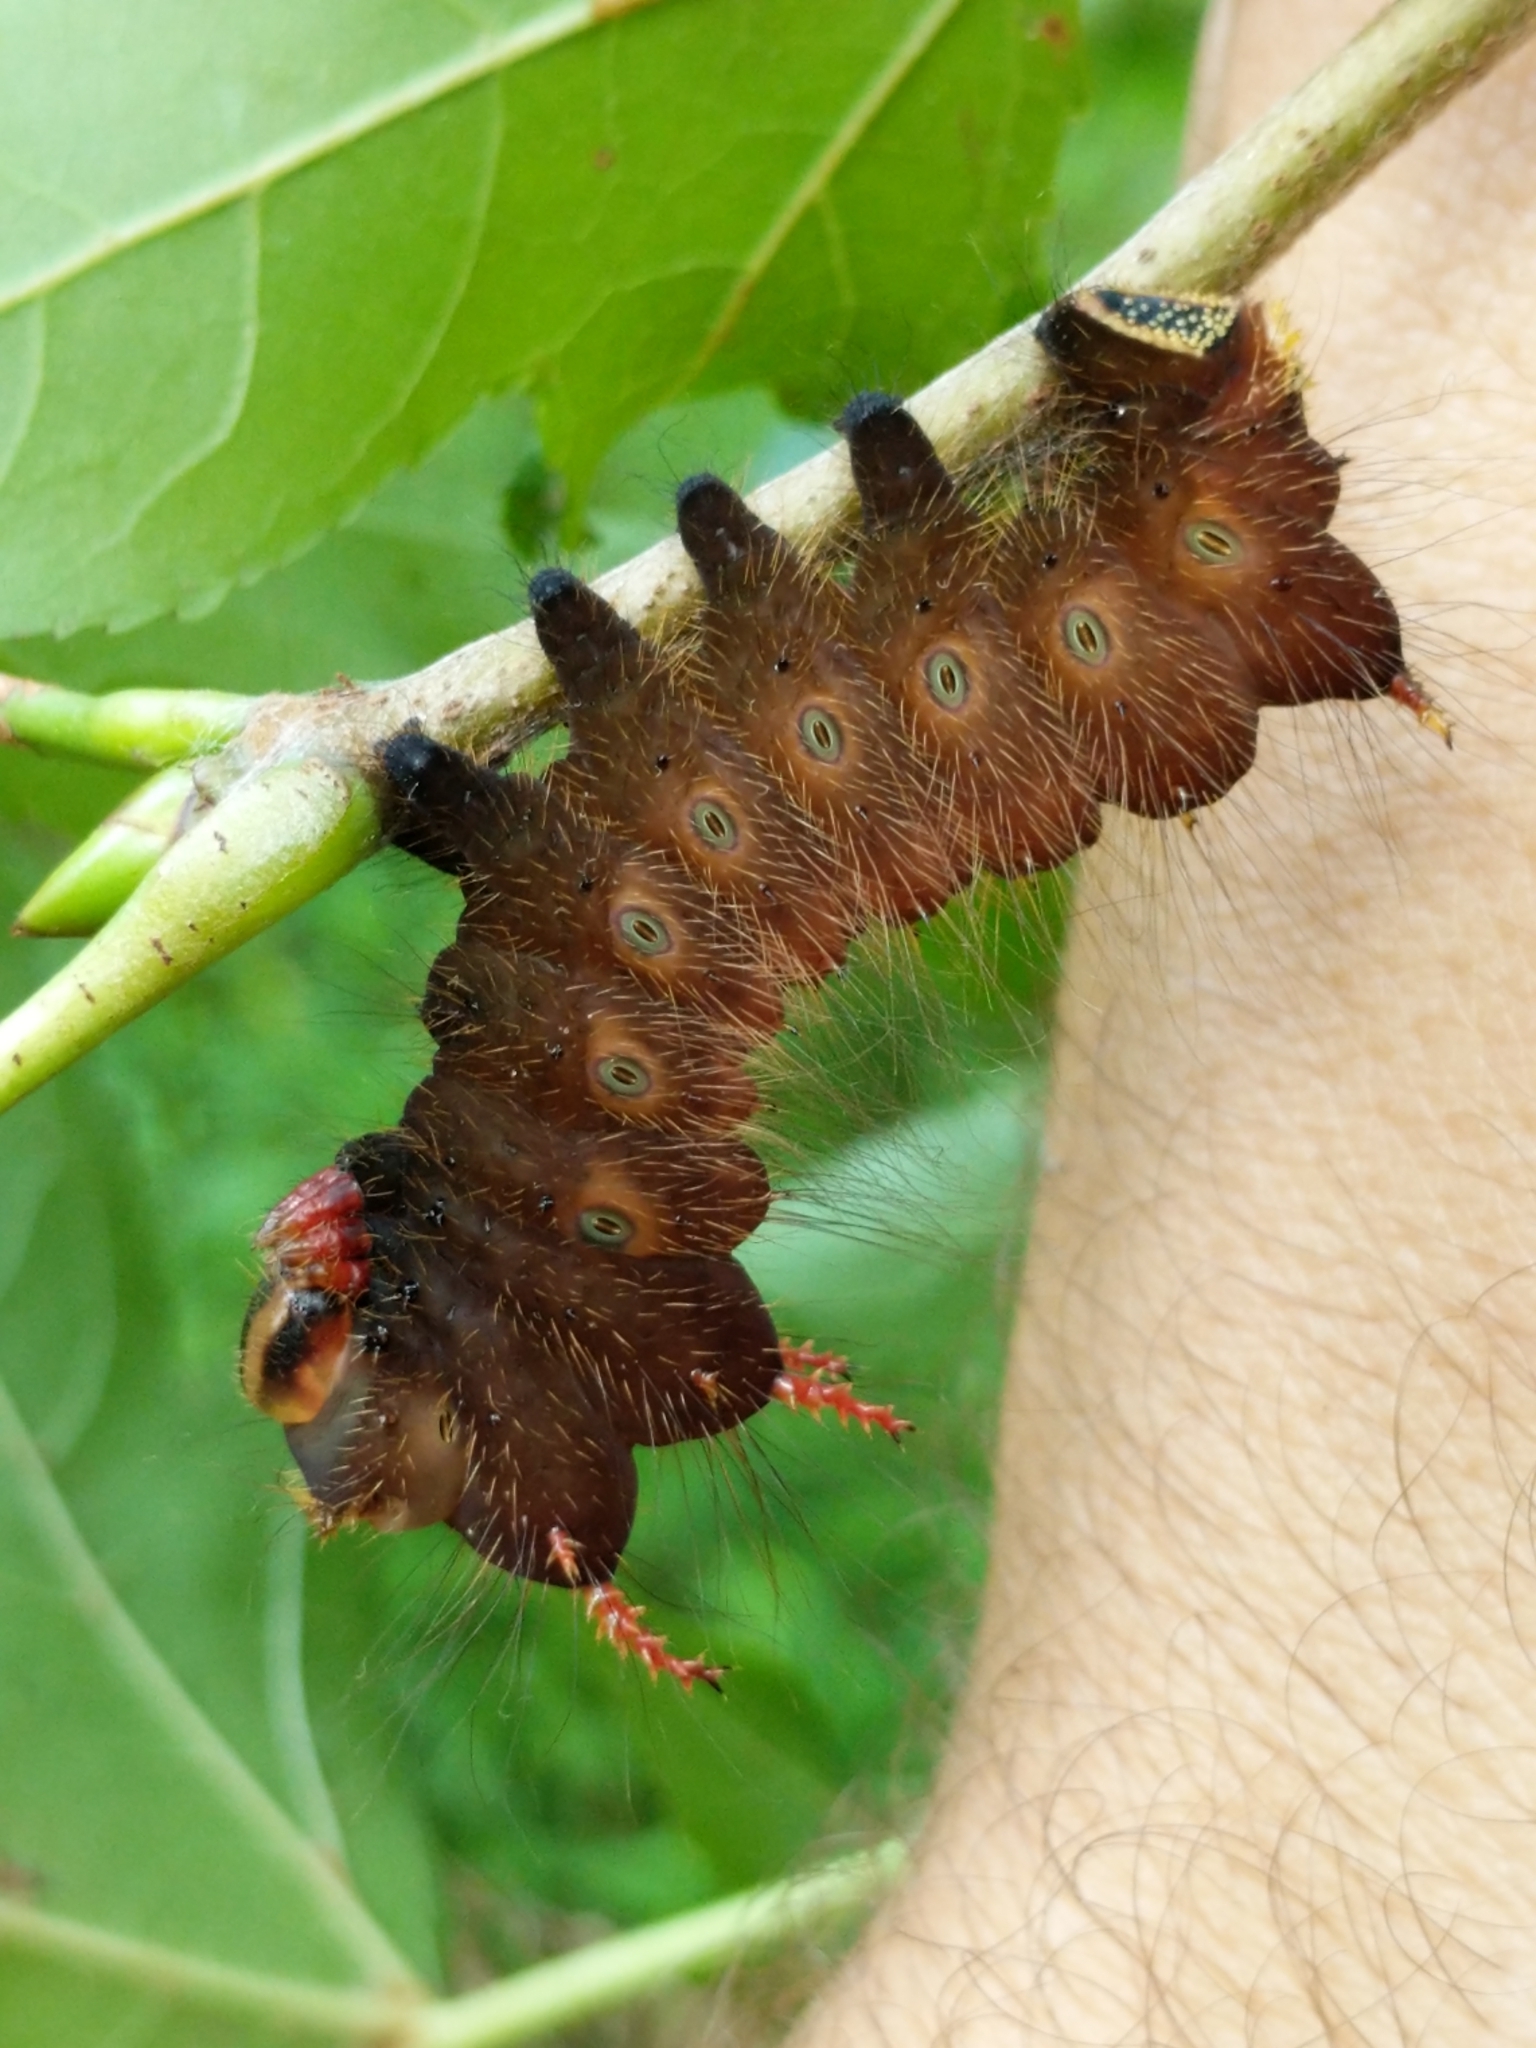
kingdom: Animalia
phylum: Arthropoda
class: Insecta
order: Lepidoptera
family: Saturniidae
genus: Eacles
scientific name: Eacles imperialis
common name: Imperial moth
